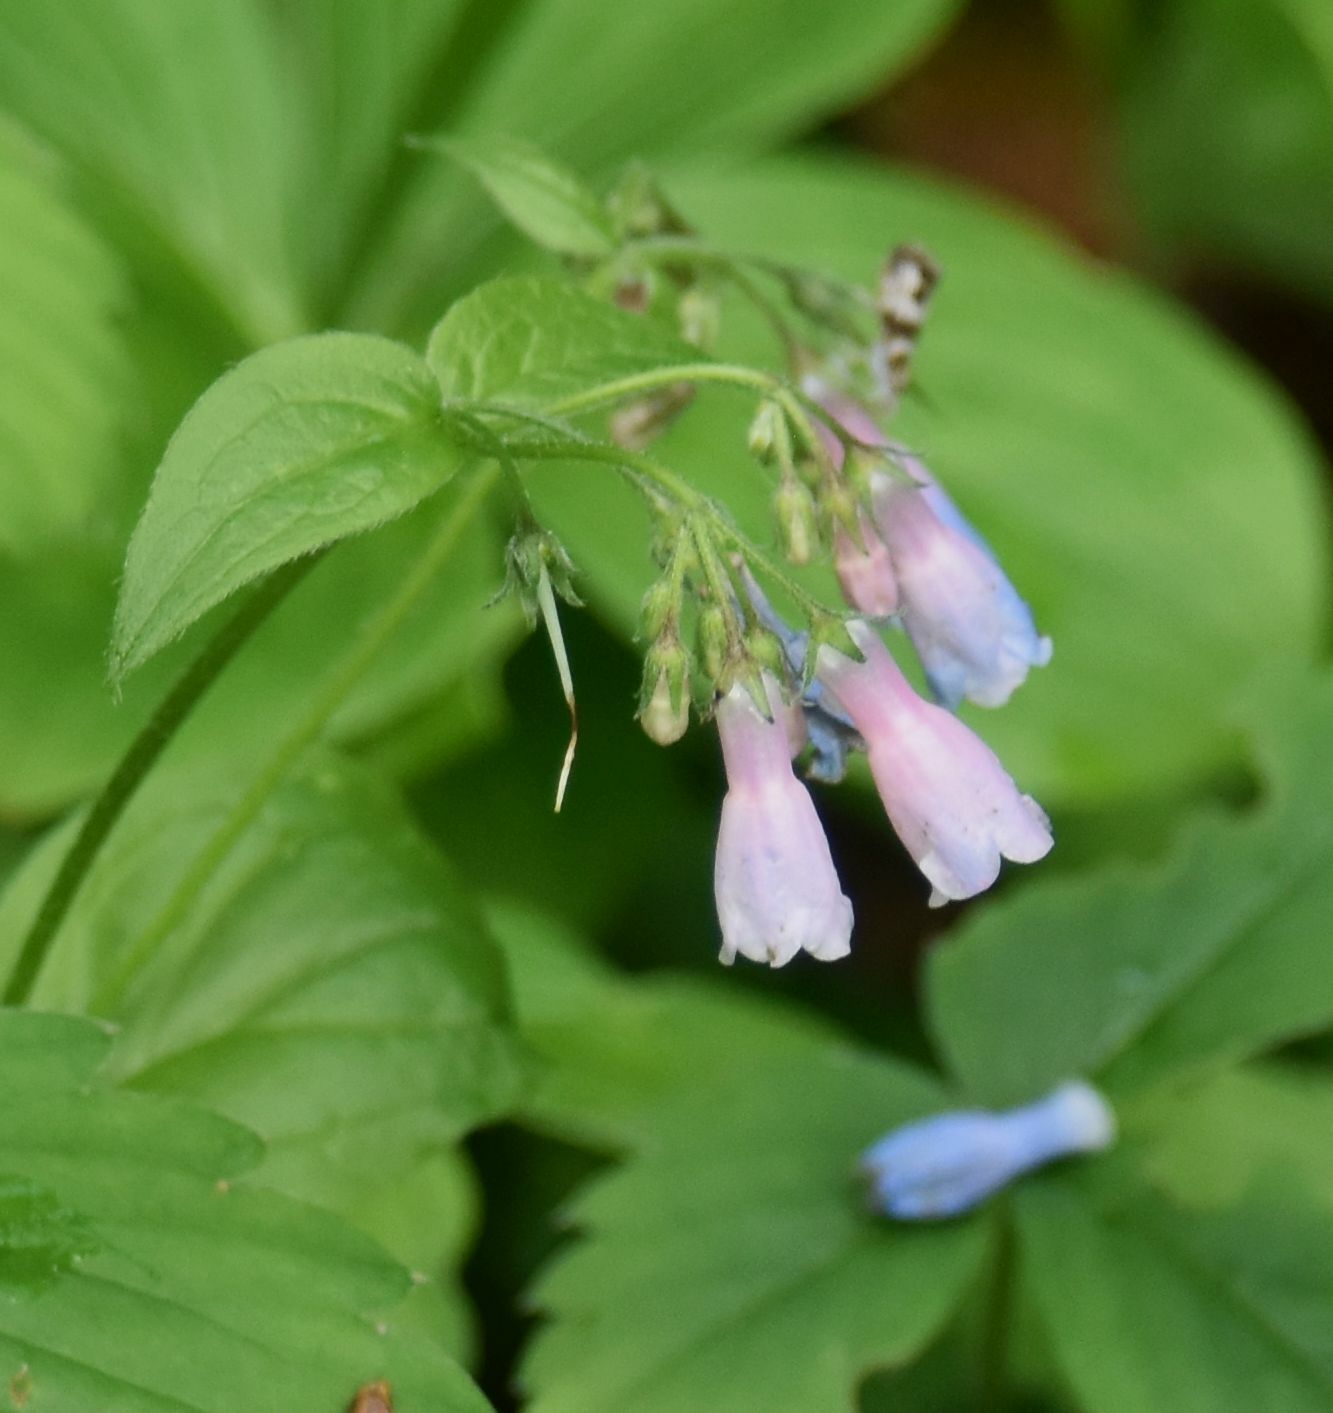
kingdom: Plantae
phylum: Tracheophyta
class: Magnoliopsida
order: Boraginales
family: Boraginaceae
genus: Mertensia
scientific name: Mertensia paniculata
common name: Panicled bluebells
